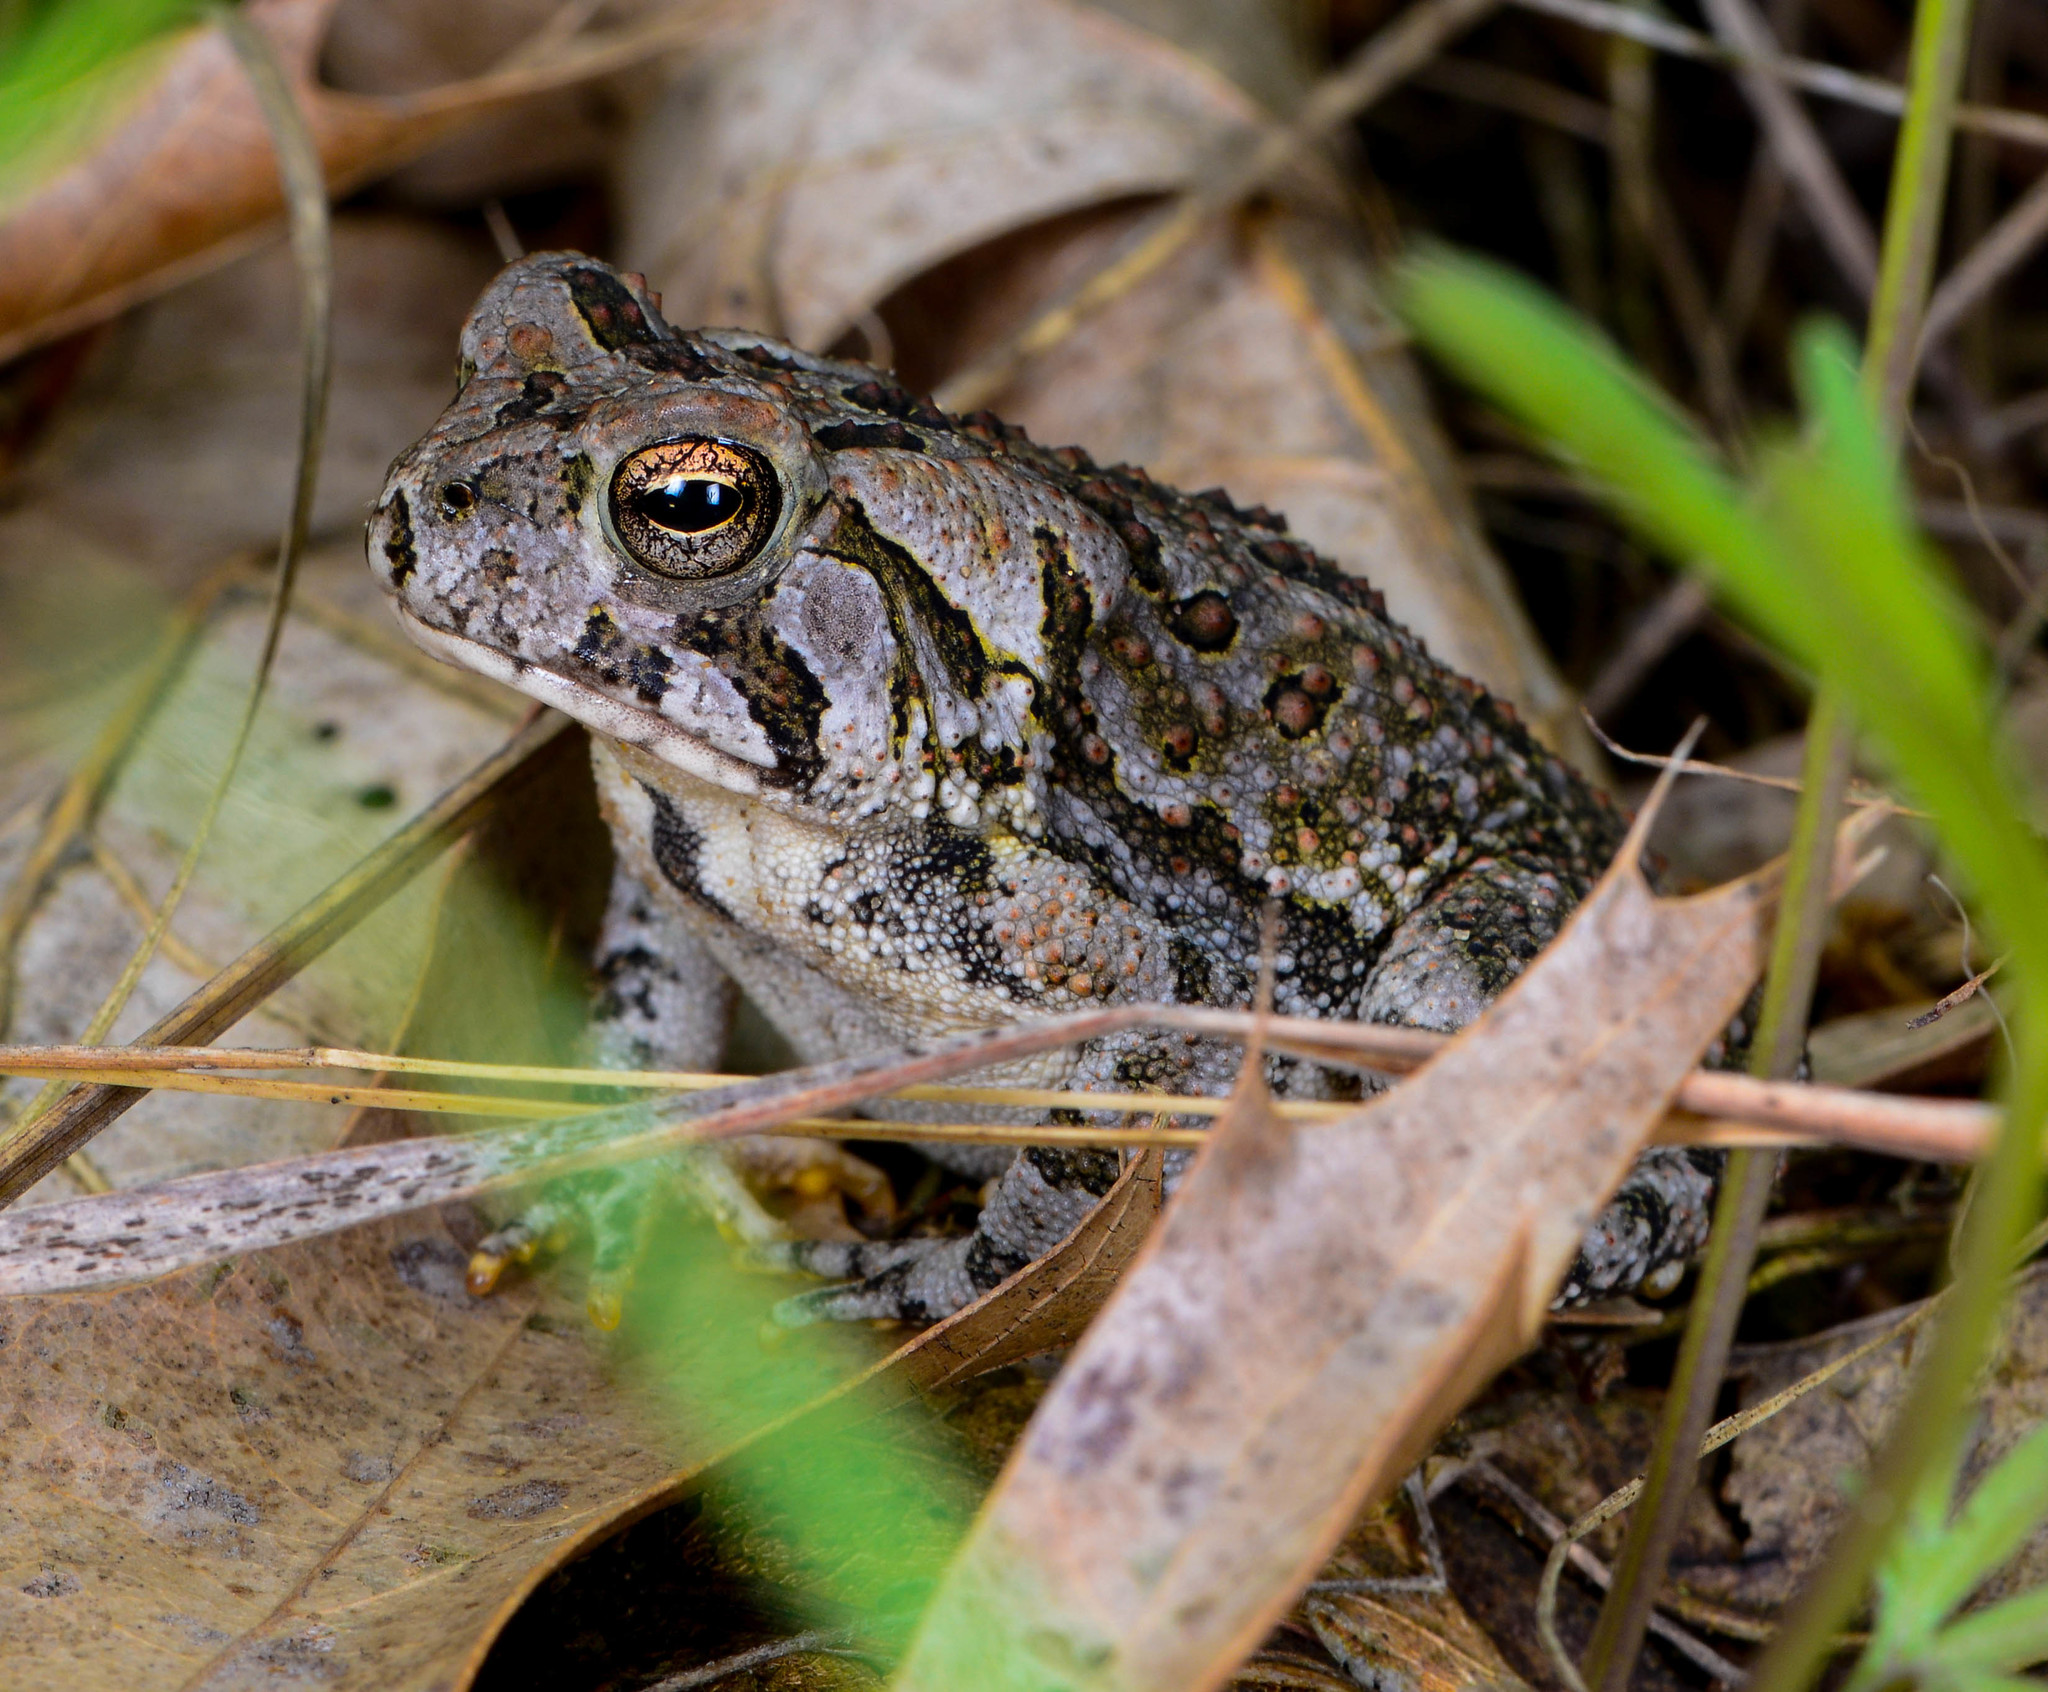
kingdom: Animalia
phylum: Chordata
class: Amphibia
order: Anura
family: Bufonidae
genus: Anaxyrus
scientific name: Anaxyrus fowleri
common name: Fowler's toad
